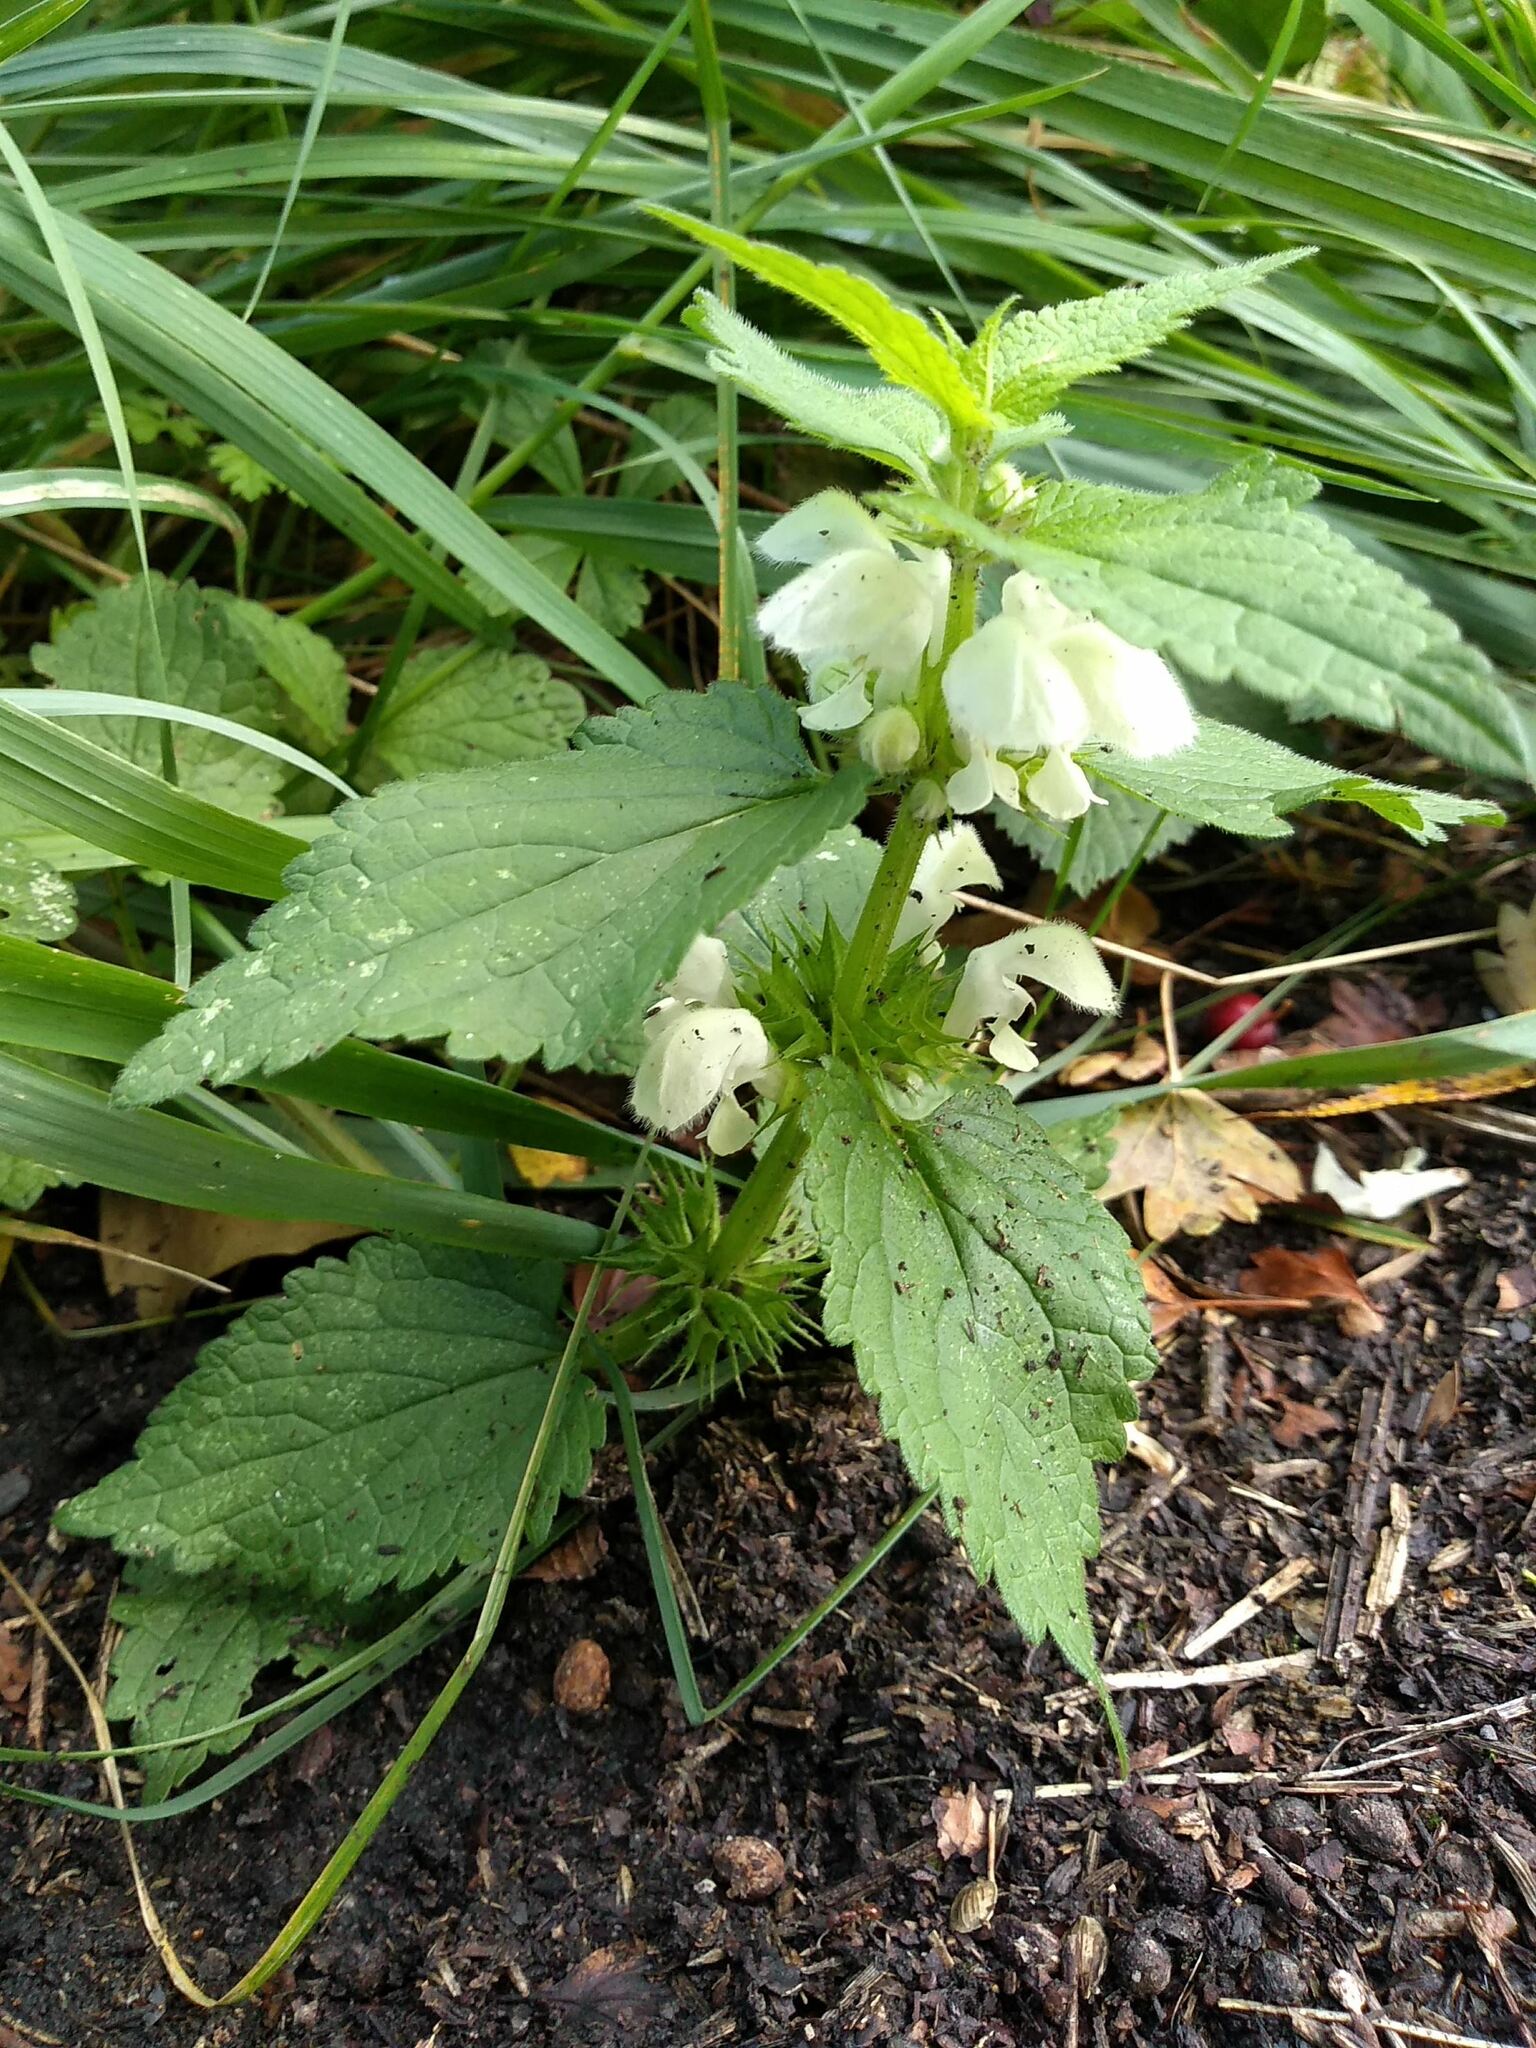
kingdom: Plantae
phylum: Tracheophyta
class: Magnoliopsida
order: Lamiales
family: Lamiaceae
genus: Lamium
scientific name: Lamium album
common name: White dead-nettle
